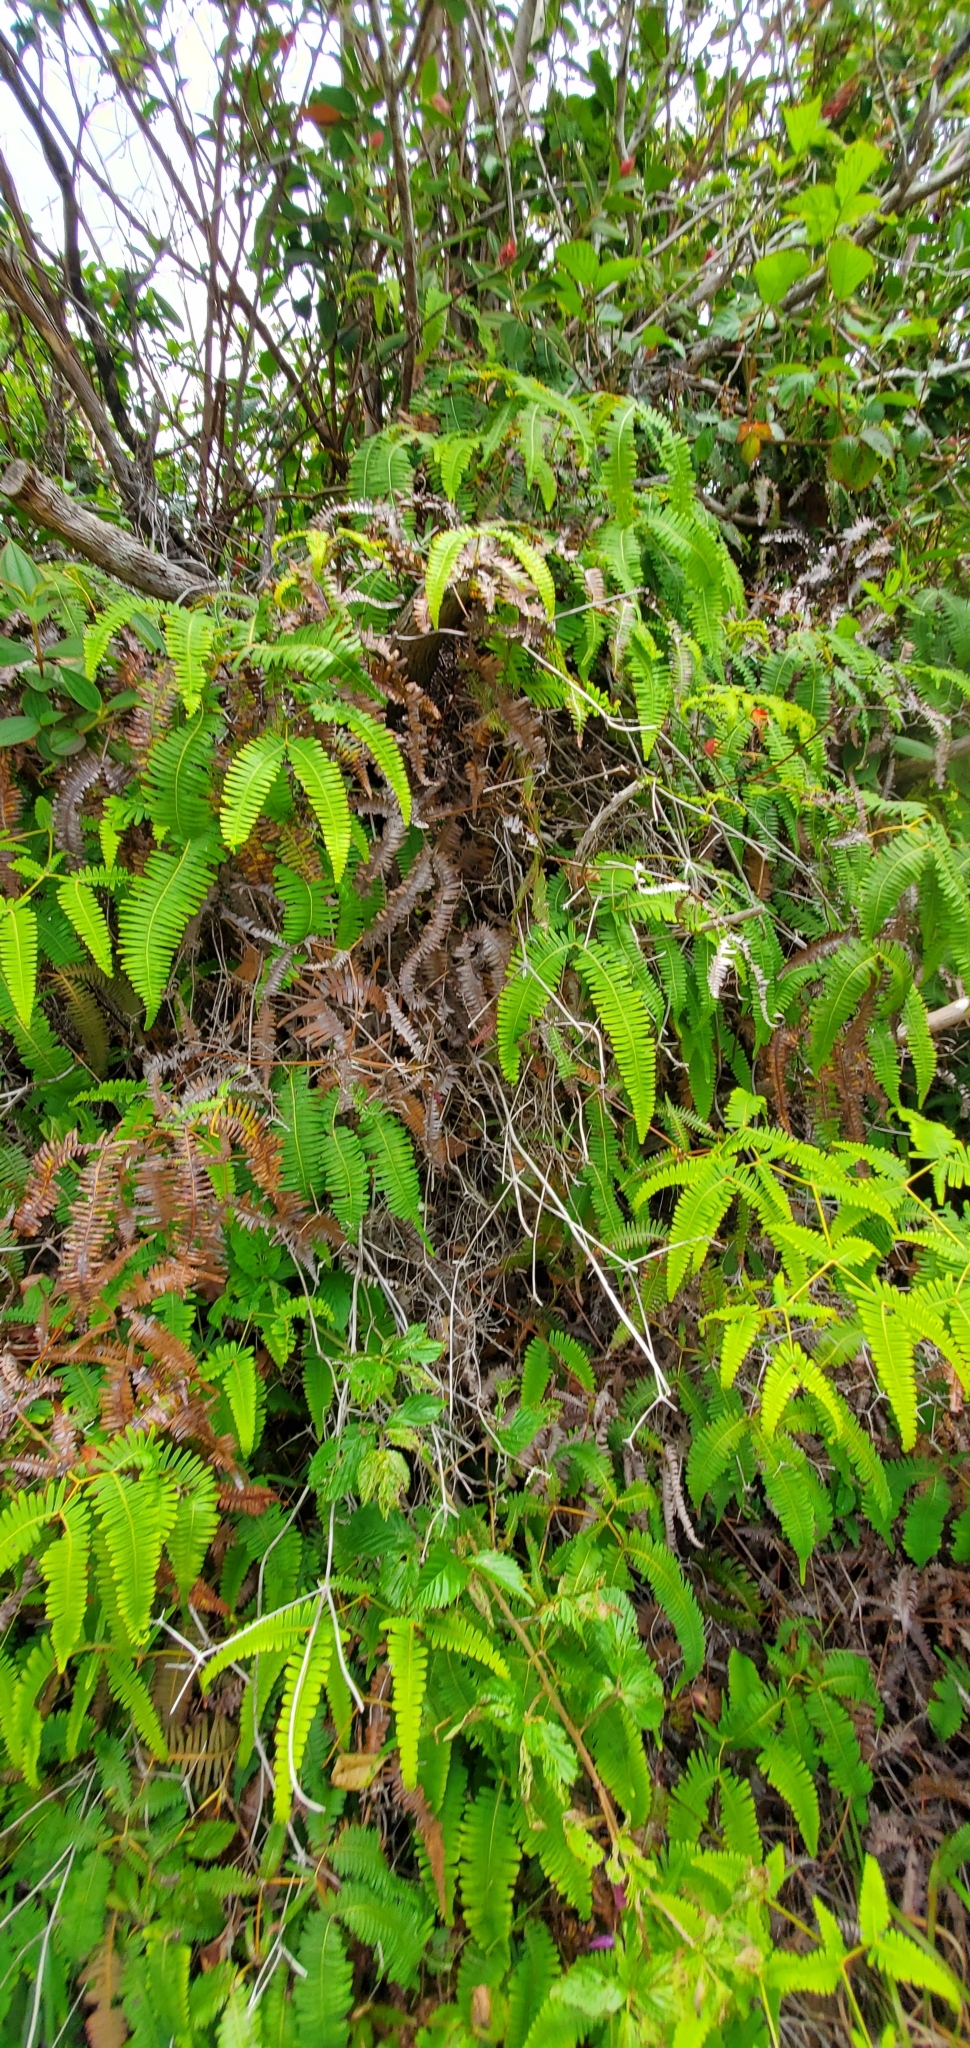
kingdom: Plantae
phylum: Tracheophyta
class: Polypodiopsida
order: Gleicheniales
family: Gleicheniaceae
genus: Dicranopteris
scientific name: Dicranopteris linearis
